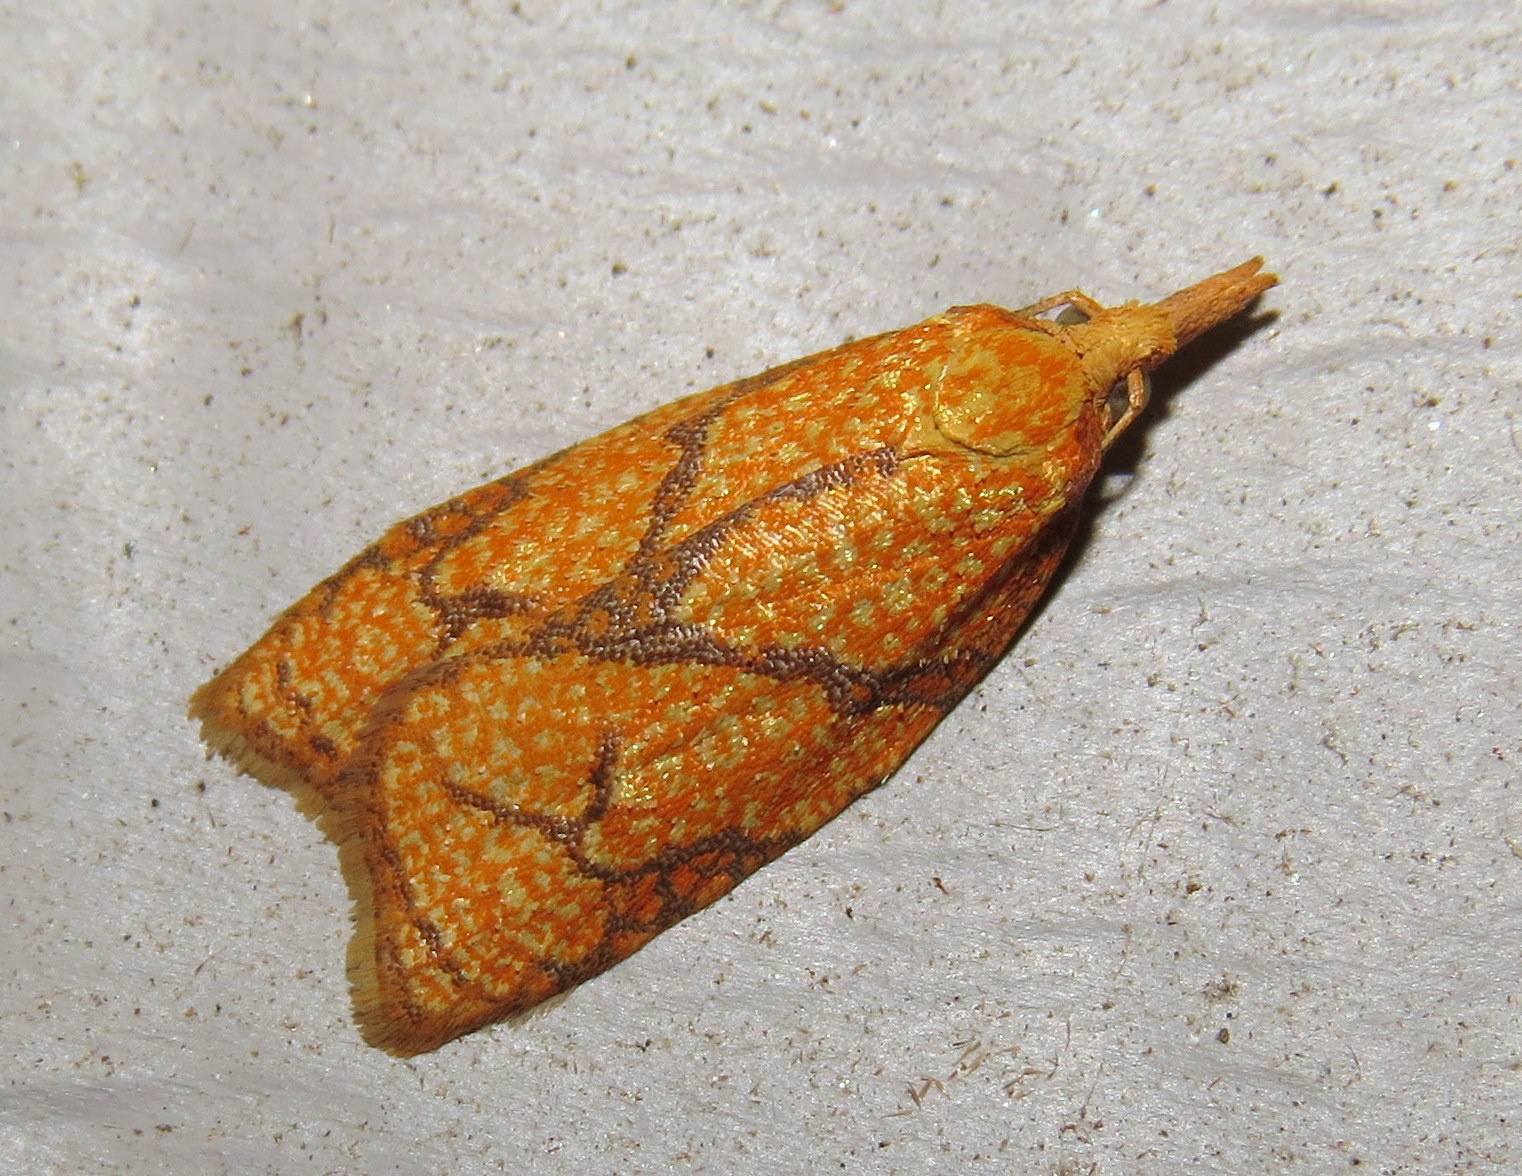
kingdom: Animalia
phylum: Arthropoda
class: Insecta
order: Lepidoptera
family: Tortricidae
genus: Cenopis
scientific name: Cenopis reticulatana
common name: Reticulated fruitworm moth
